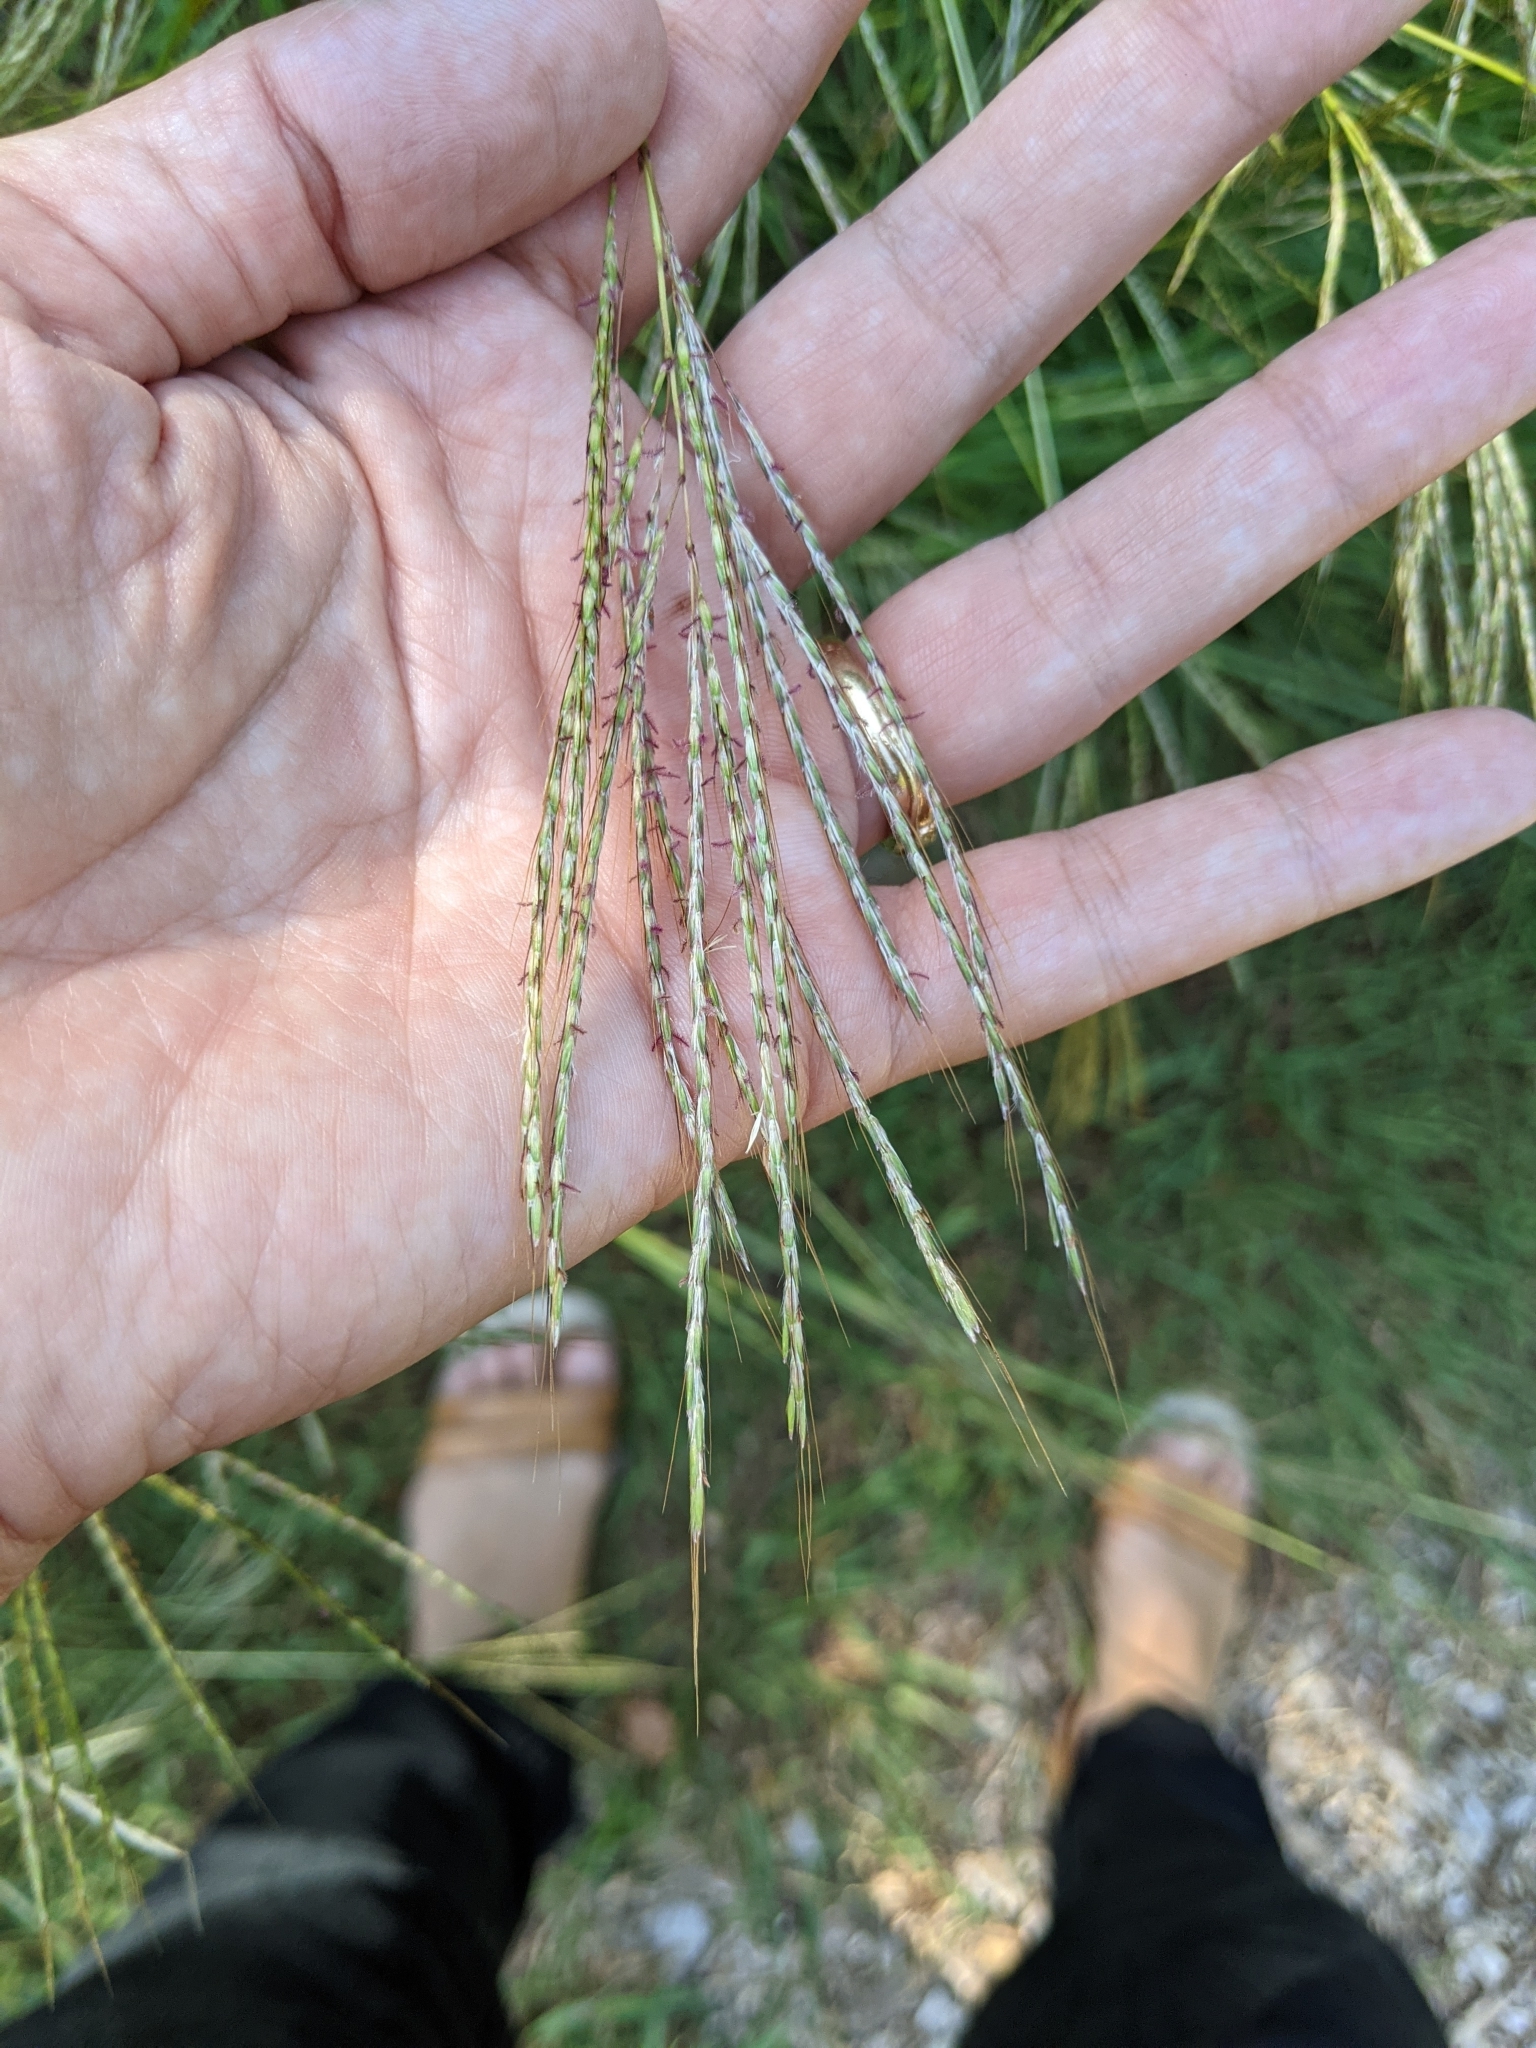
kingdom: Plantae
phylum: Tracheophyta
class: Liliopsida
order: Poales
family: Poaceae
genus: Bothriochloa
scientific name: Bothriochloa ischaemum
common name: Yellow bluestem
